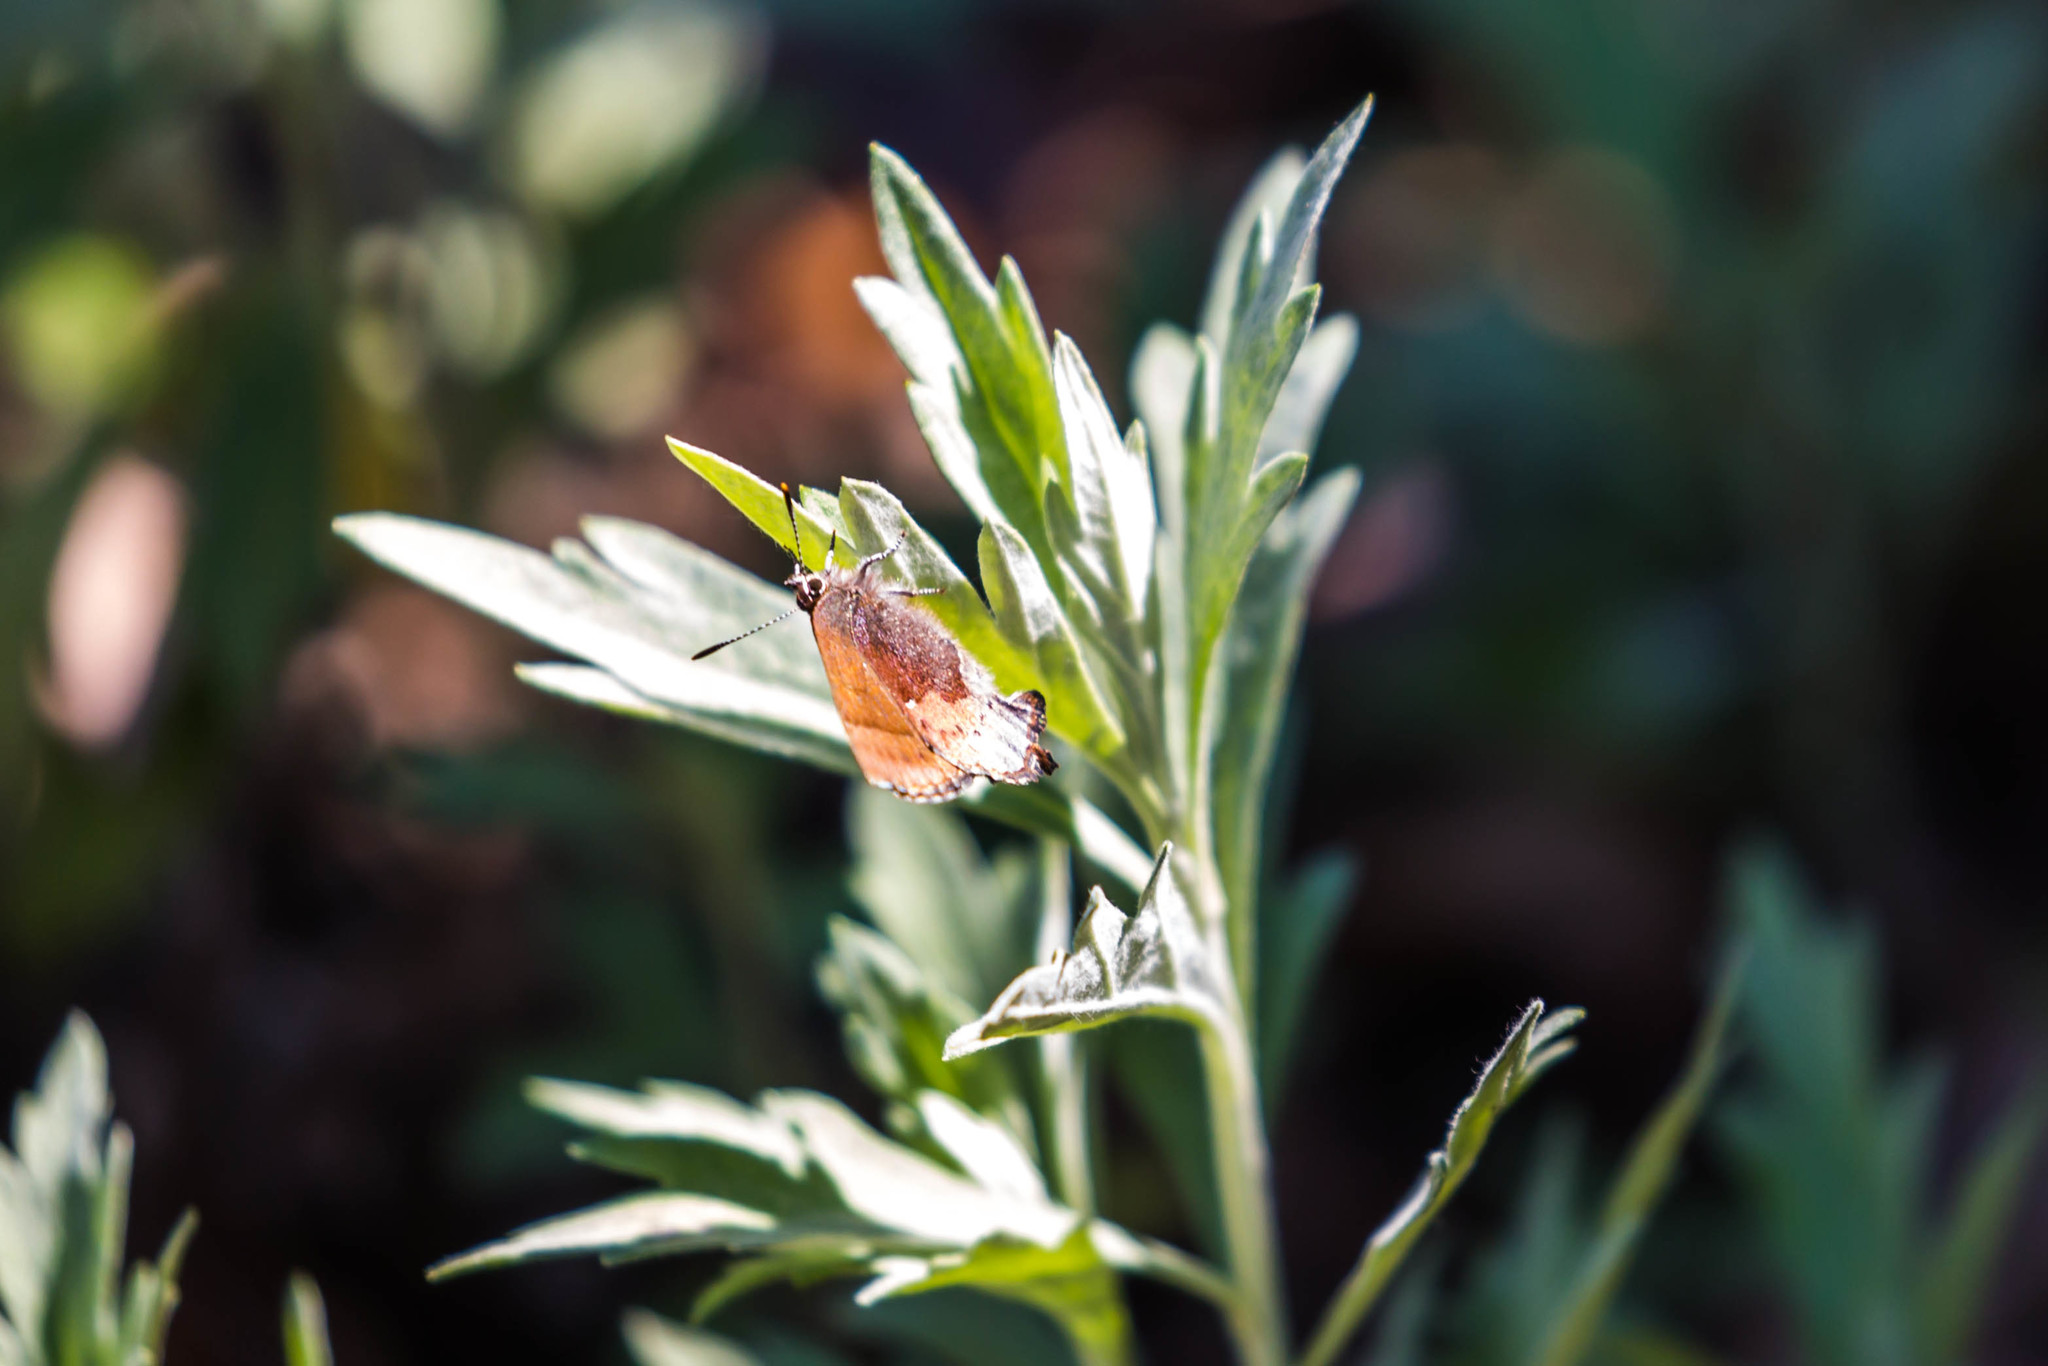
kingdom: Animalia
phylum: Arthropoda
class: Insecta
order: Lepidoptera
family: Lycaenidae
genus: Incisalia
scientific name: Incisalia henrici
